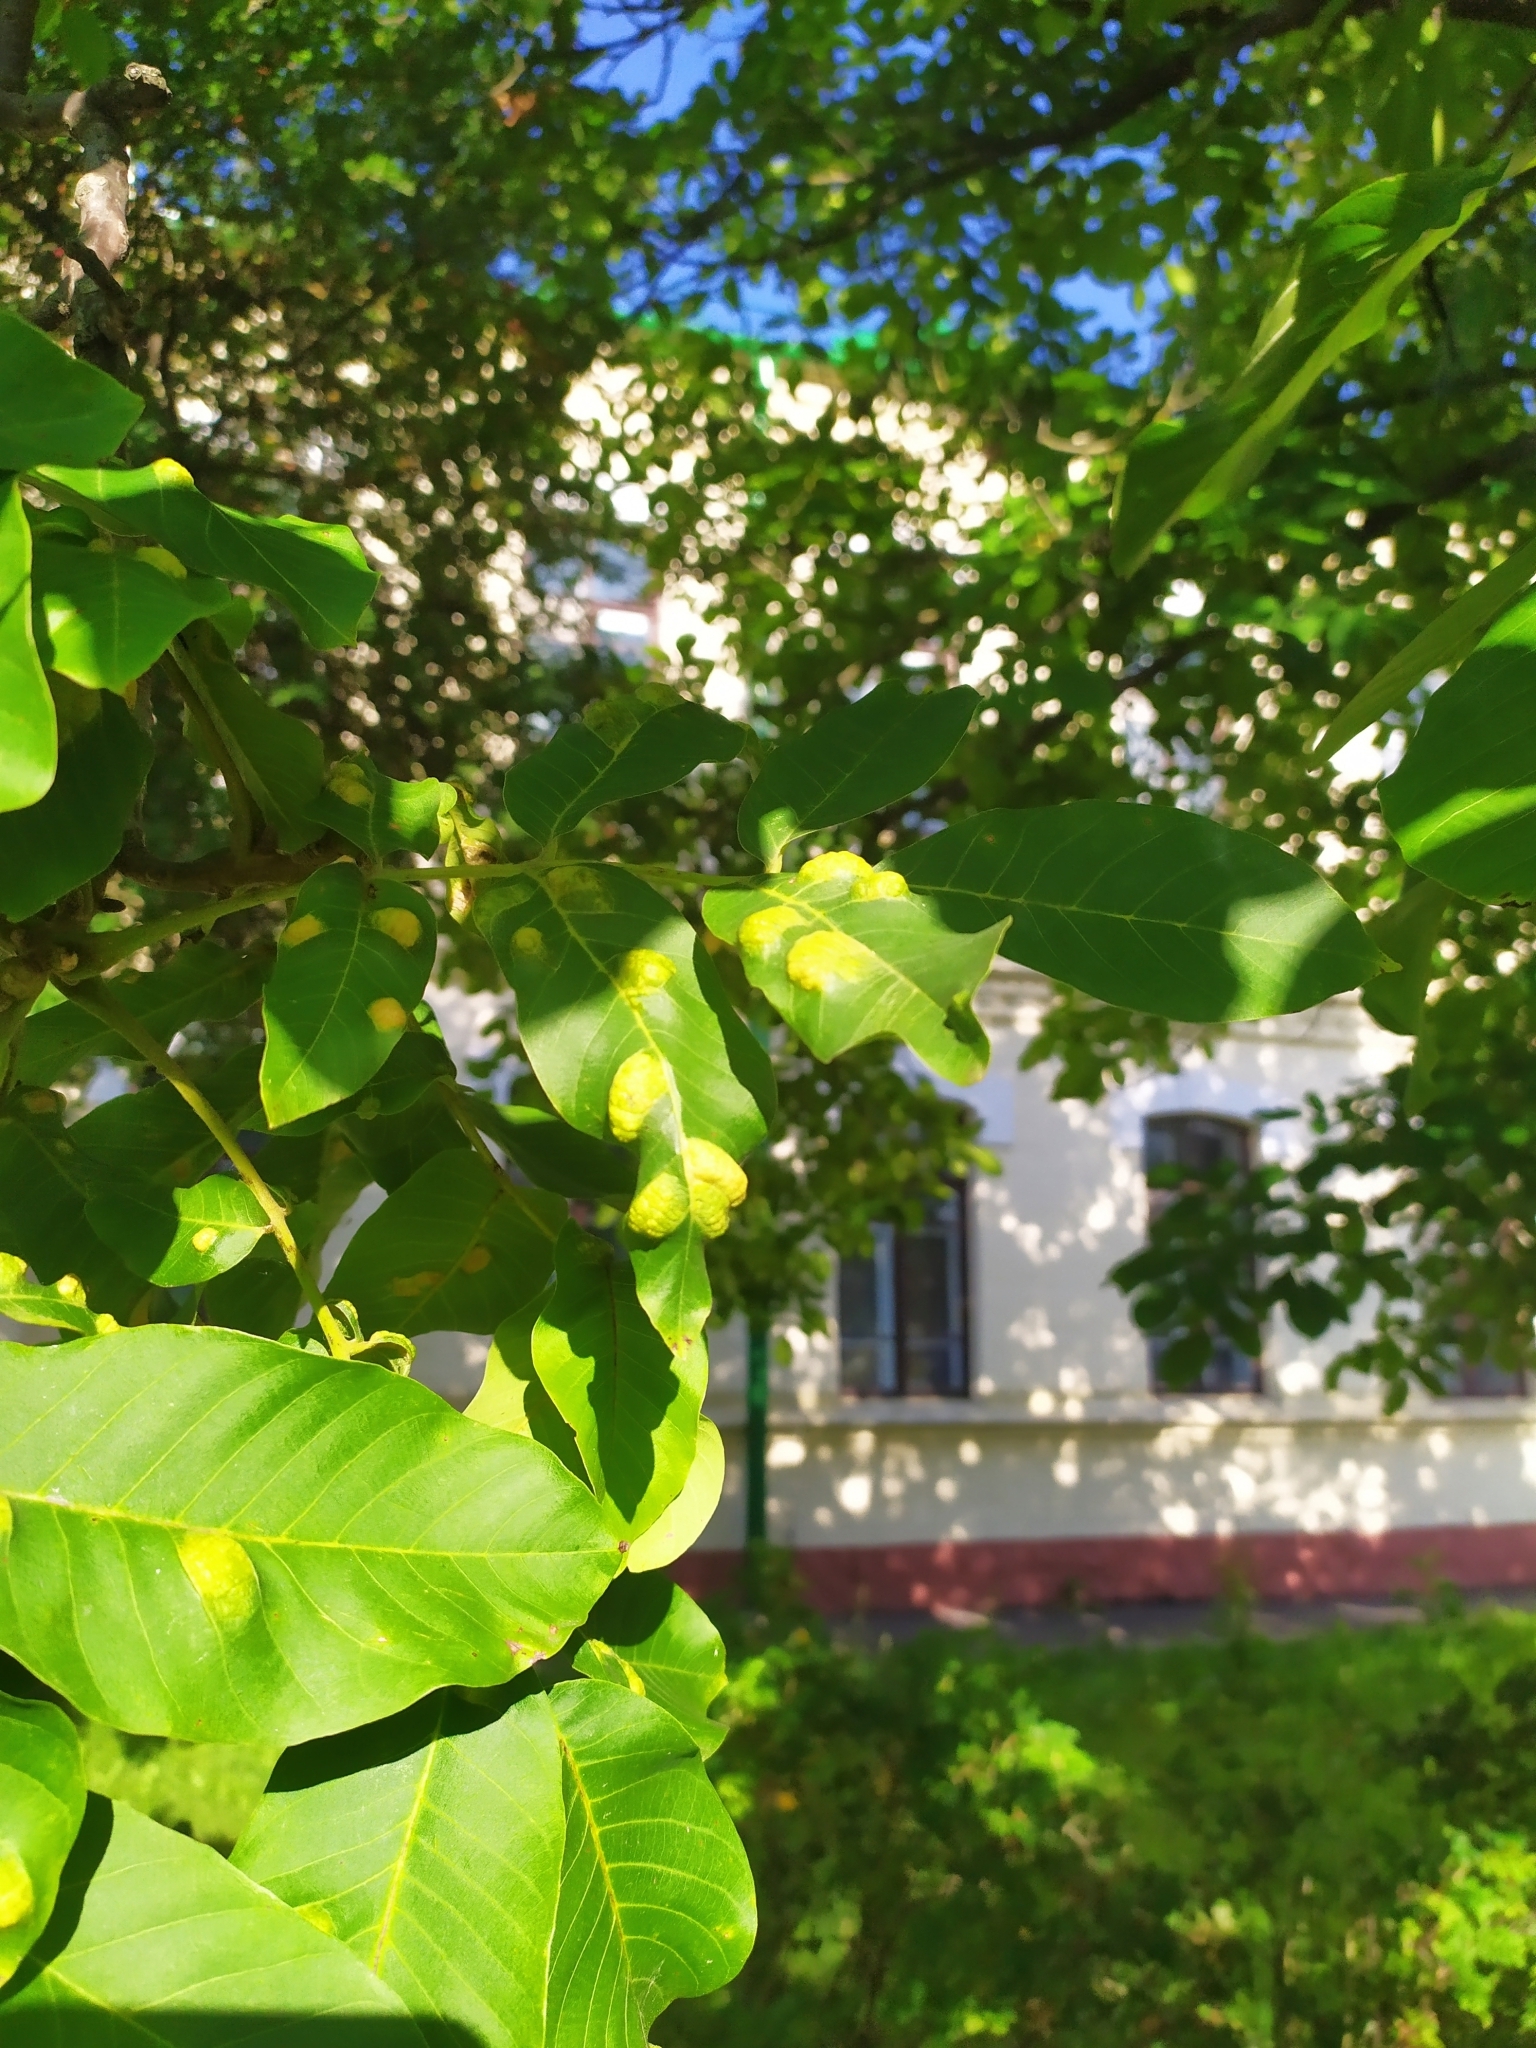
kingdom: Animalia
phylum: Arthropoda
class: Arachnida
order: Trombidiformes
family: Eriophyidae
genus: Aceria
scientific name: Aceria erinea
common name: Persian walnut erineum mite
